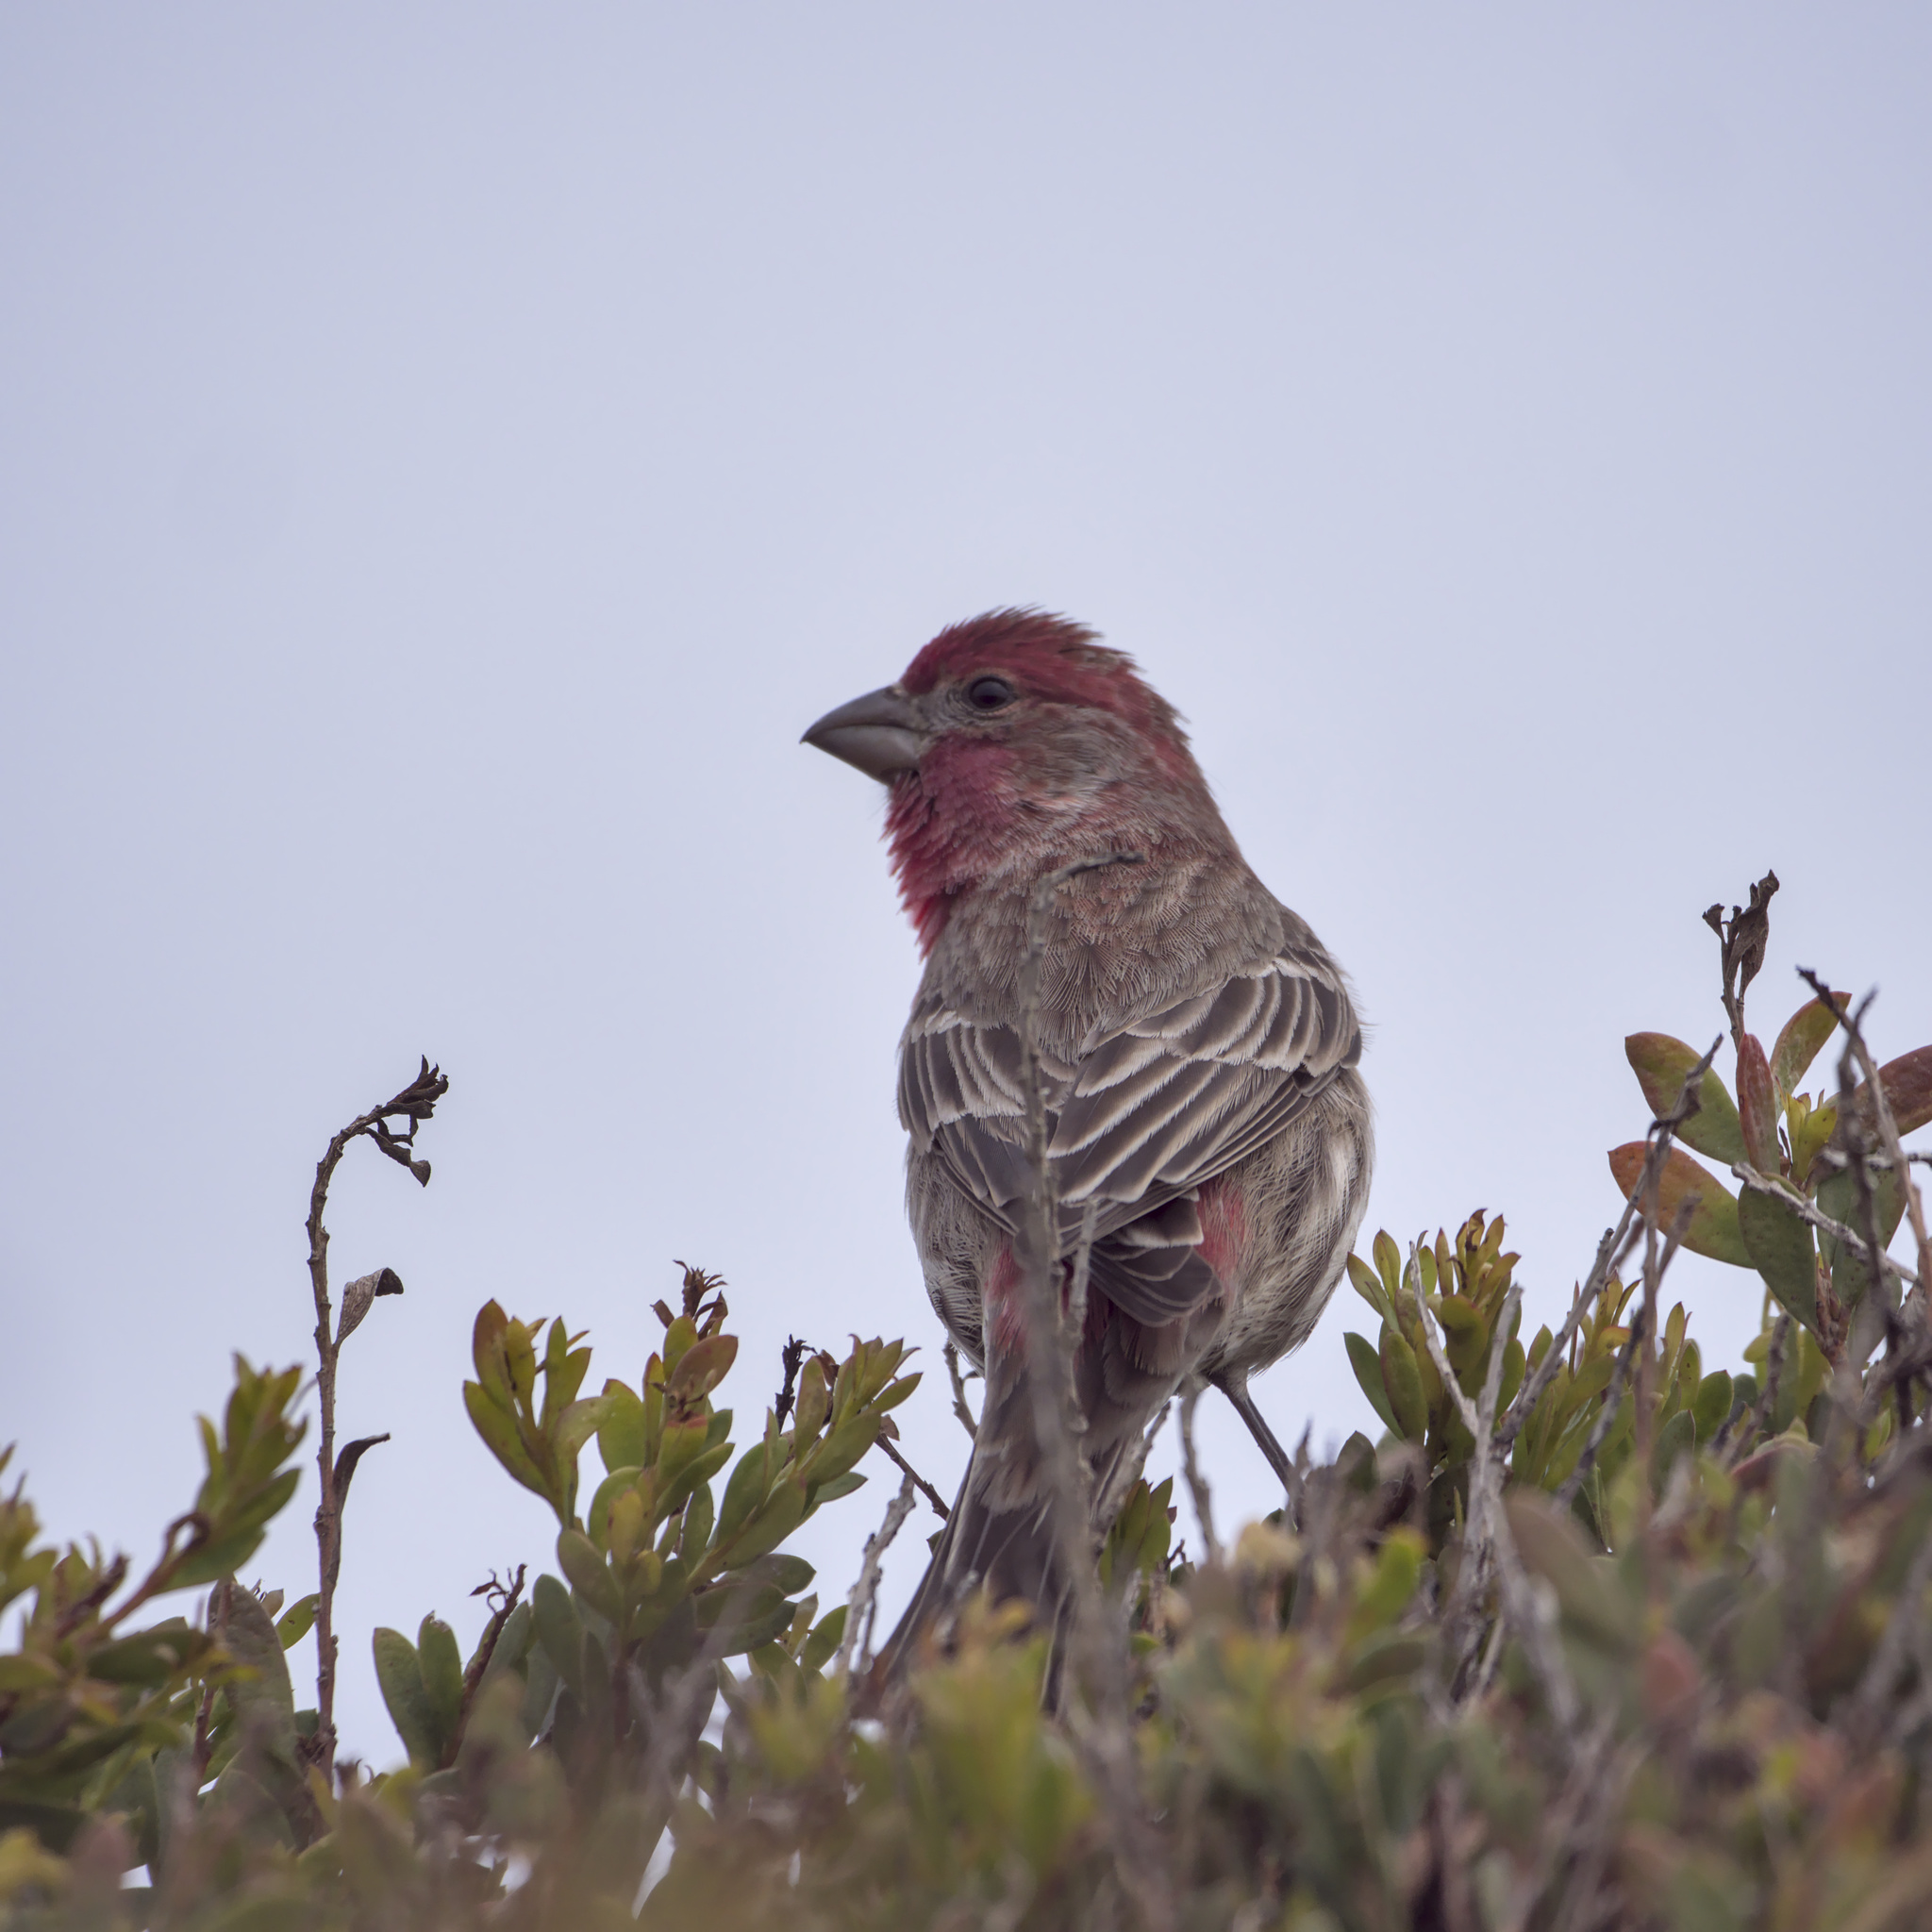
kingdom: Animalia
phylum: Chordata
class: Aves
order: Passeriformes
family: Fringillidae
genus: Haemorhous
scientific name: Haemorhous mexicanus
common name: House finch
